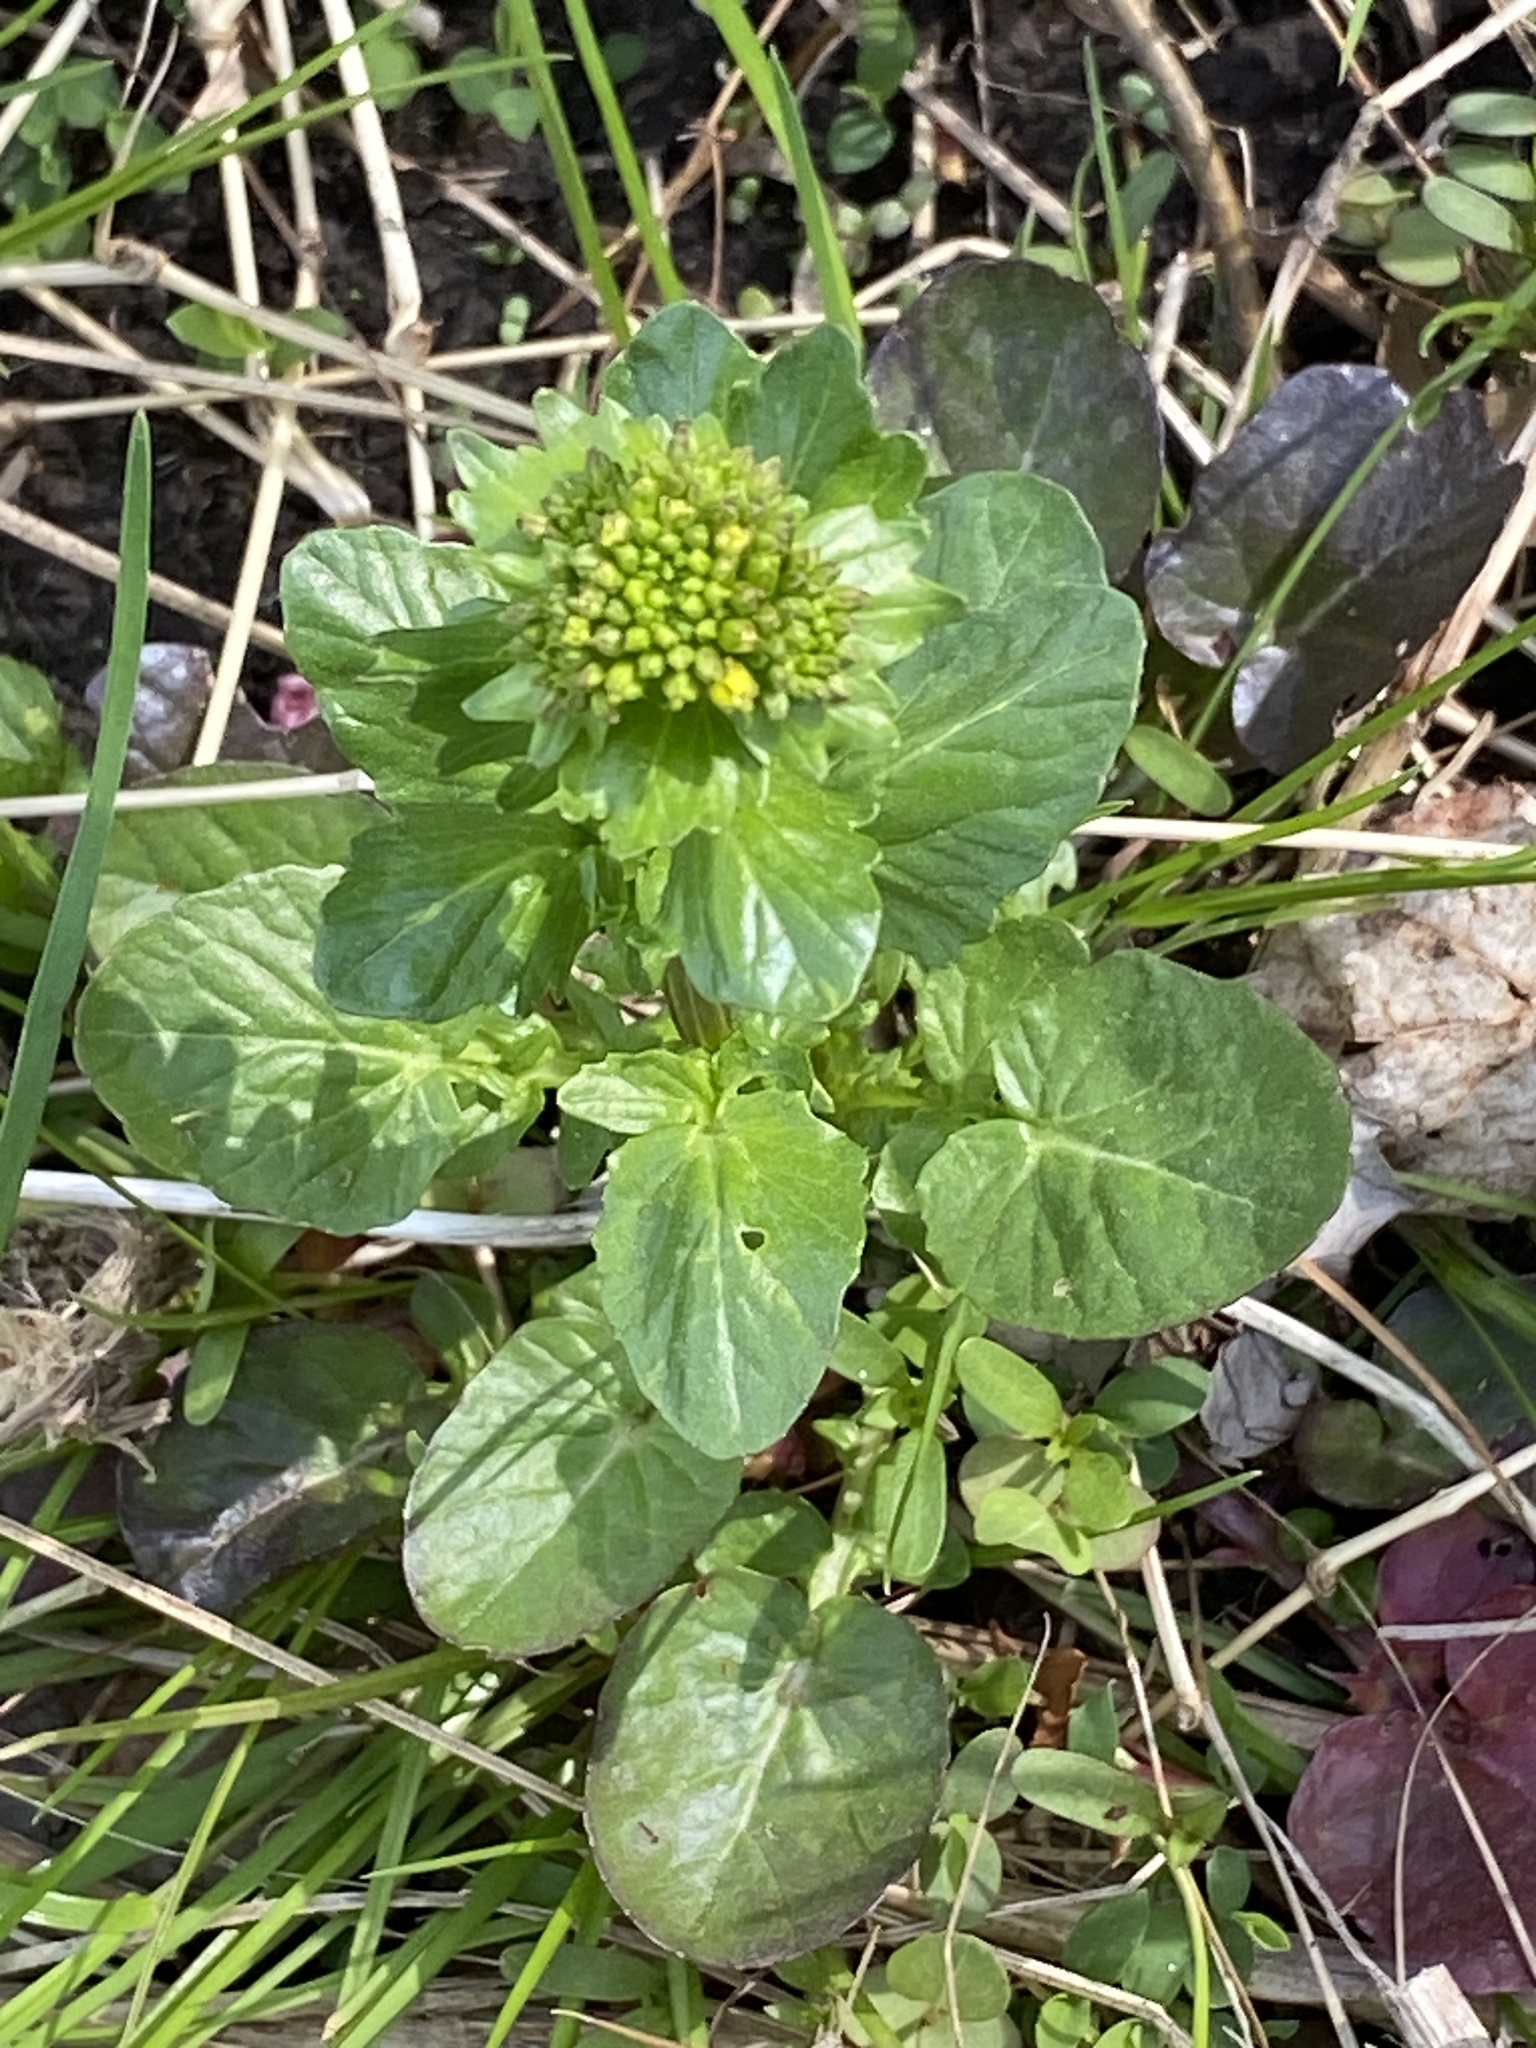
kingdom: Plantae
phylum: Tracheophyta
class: Magnoliopsida
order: Brassicales
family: Brassicaceae
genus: Barbarea
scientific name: Barbarea vulgaris
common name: Cressy-greens
